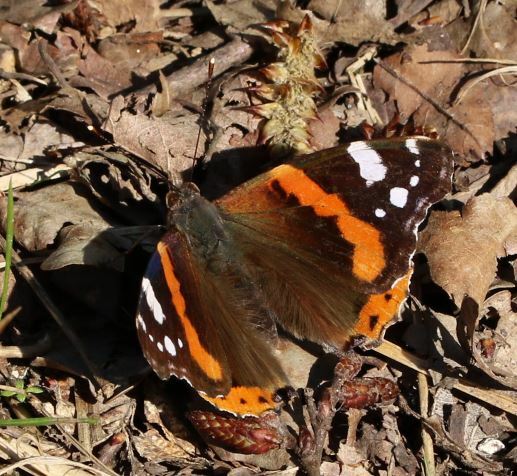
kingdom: Animalia
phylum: Arthropoda
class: Insecta
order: Lepidoptera
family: Nymphalidae
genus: Vanessa
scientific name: Vanessa atalanta
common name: Red admiral
